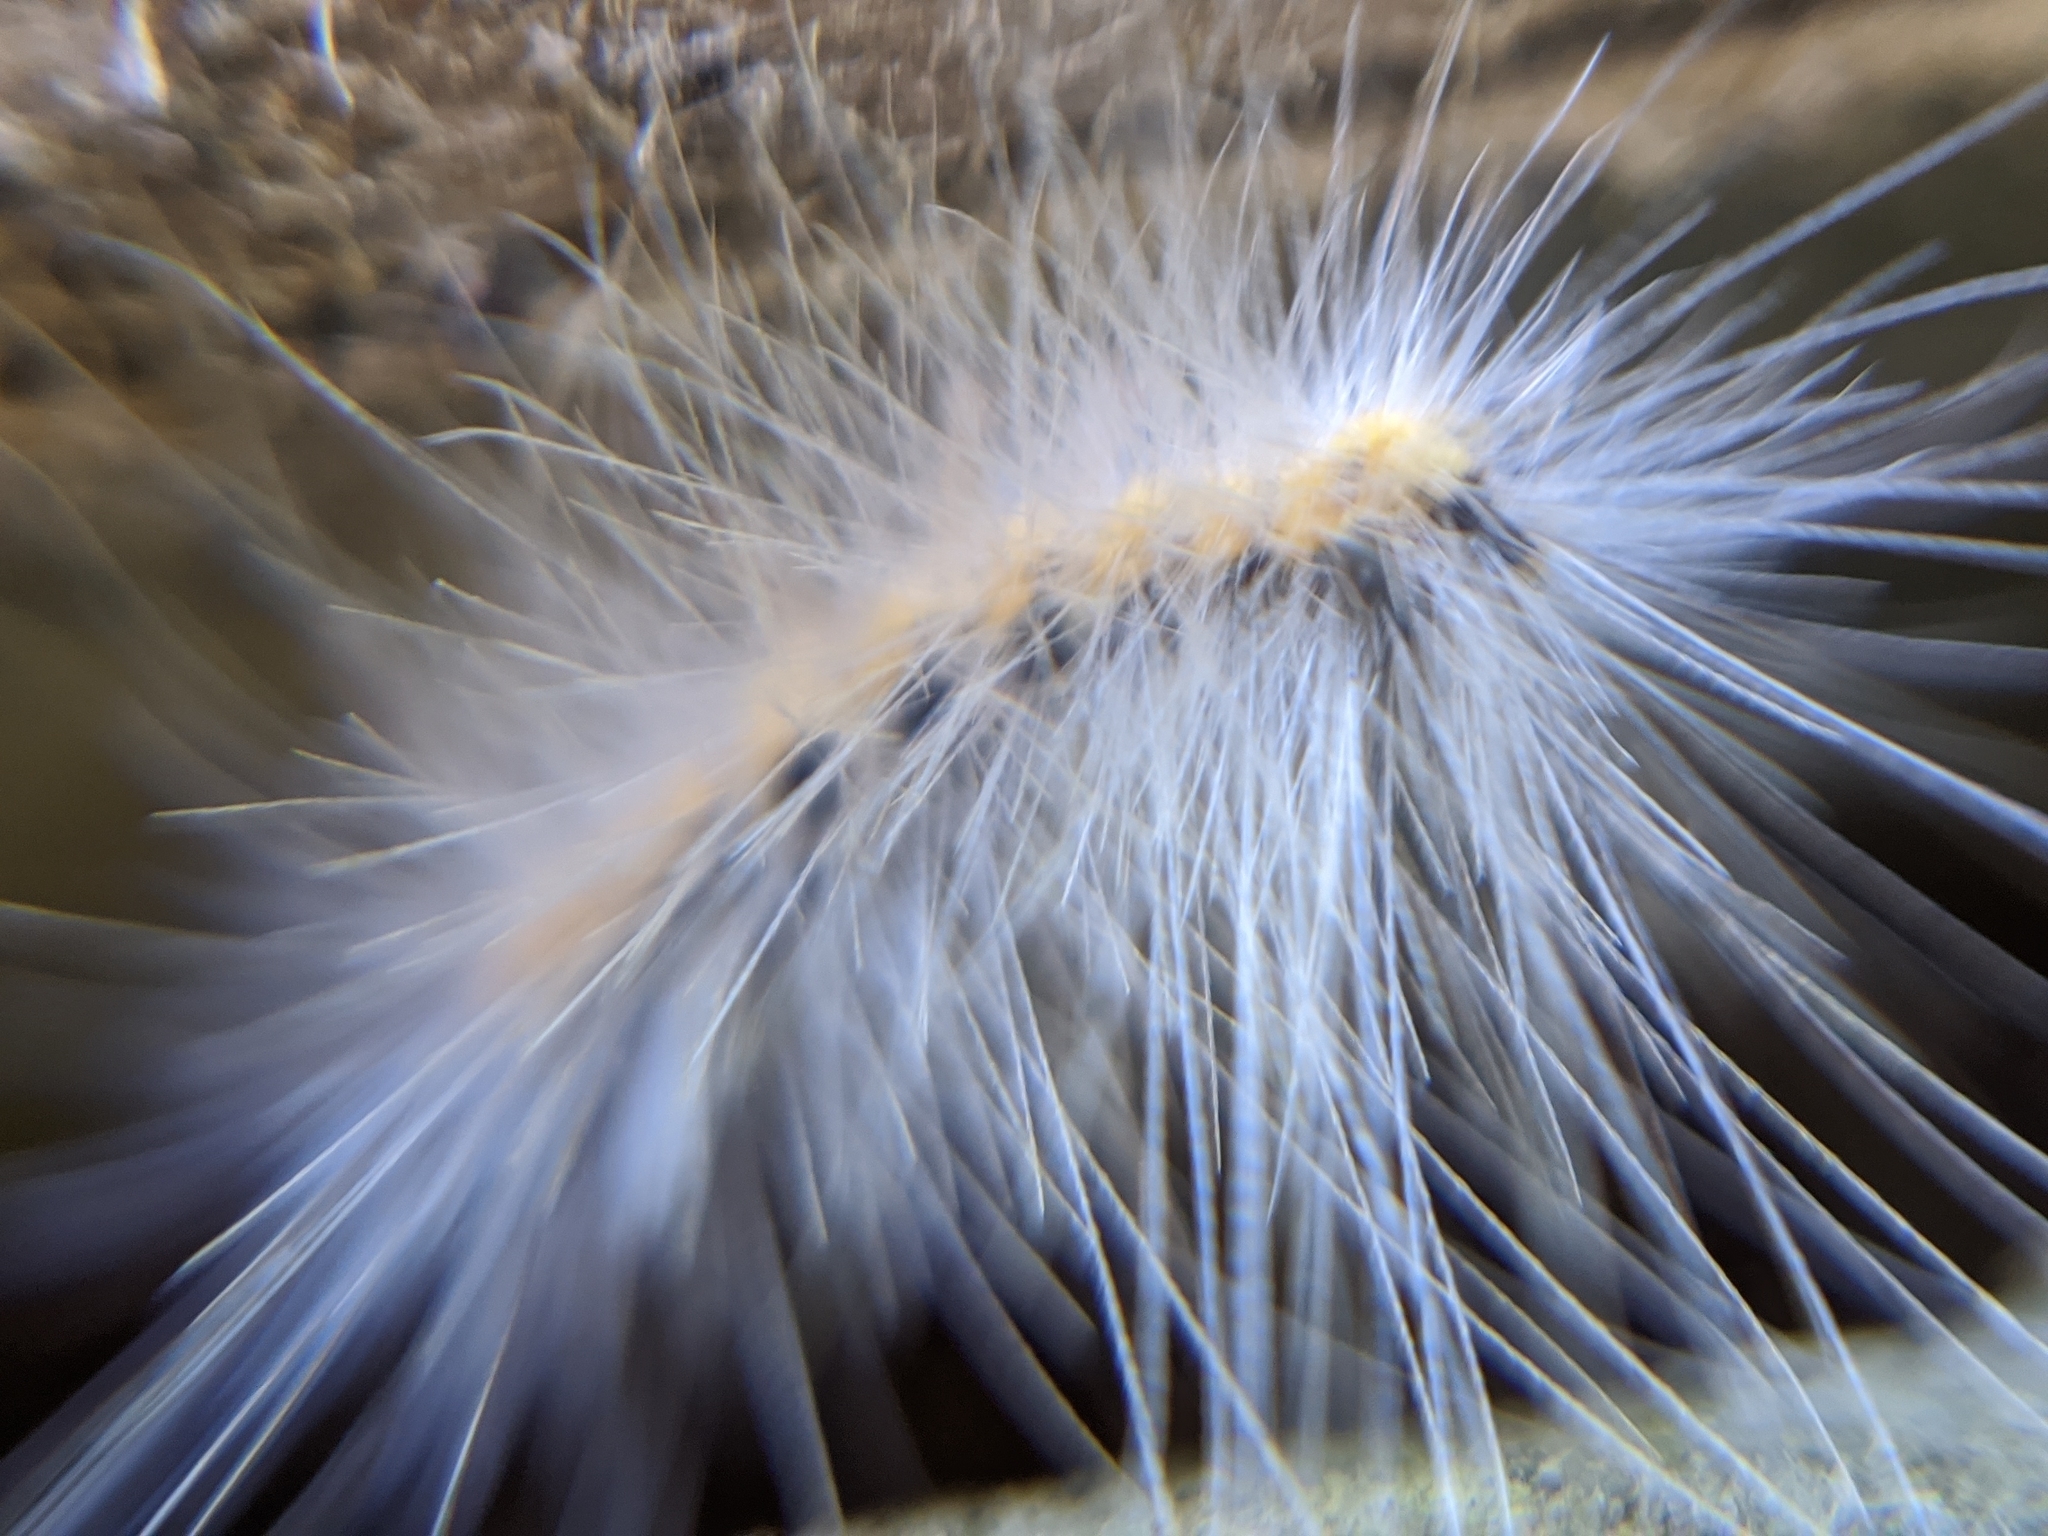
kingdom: Animalia
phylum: Arthropoda
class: Insecta
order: Lepidoptera
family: Erebidae
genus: Hyphantria
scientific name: Hyphantria cunea
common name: American white moth
